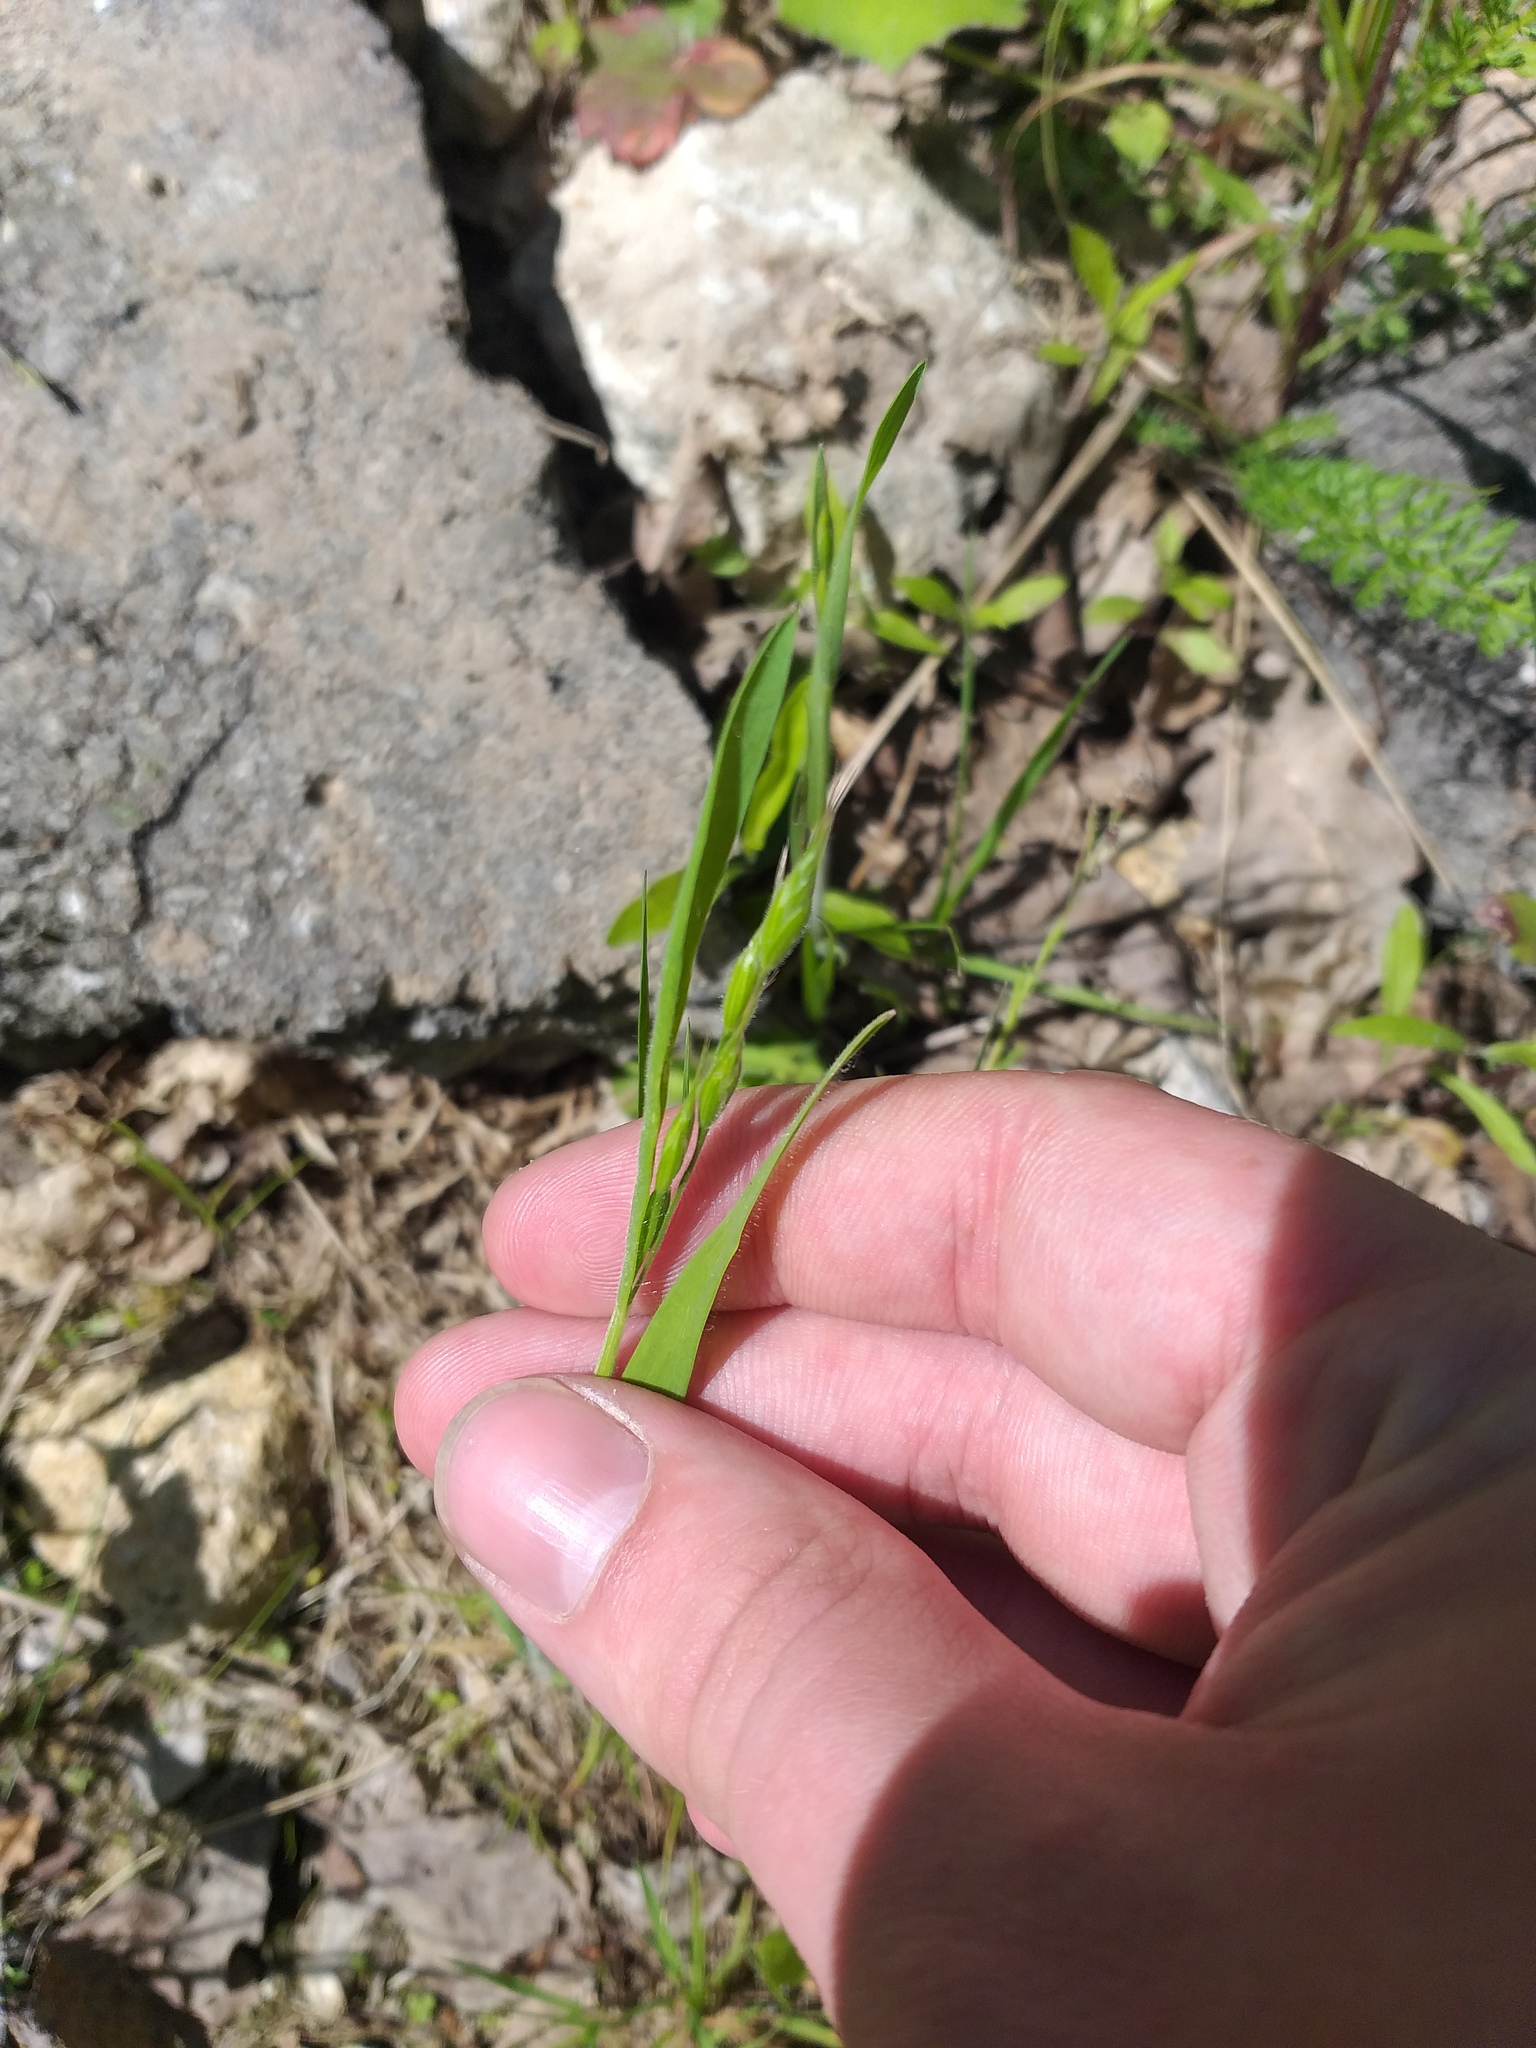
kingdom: Plantae
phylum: Tracheophyta
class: Liliopsida
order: Poales
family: Poaceae
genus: Bromus
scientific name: Bromus hordeaceus
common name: Soft brome
